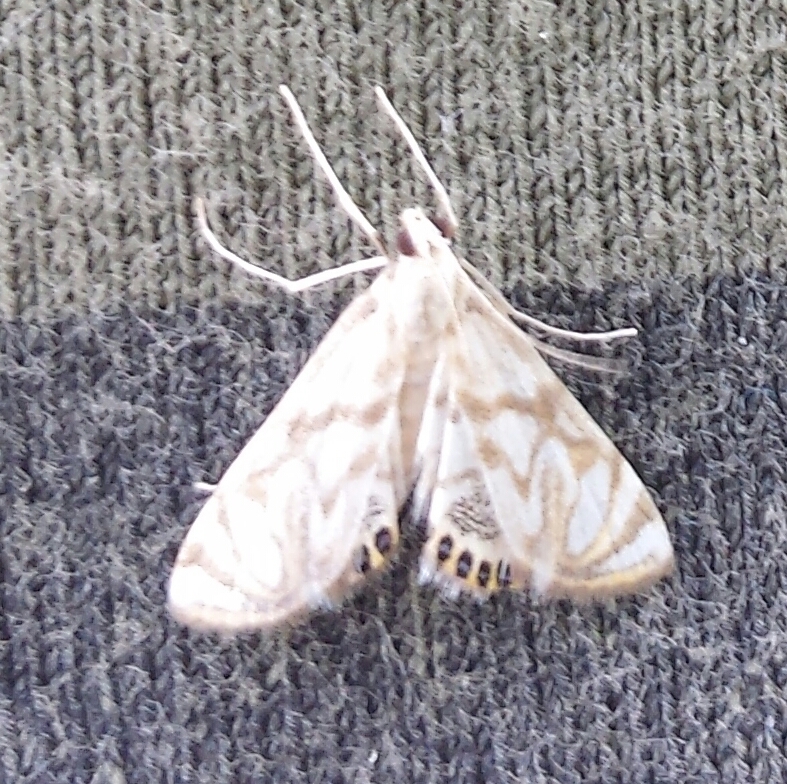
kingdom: Animalia
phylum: Arthropoda
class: Insecta
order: Lepidoptera
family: Crambidae
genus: Neocataclysta
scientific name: Neocataclysta magnificalis
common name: Scrollwork pyralid moth
